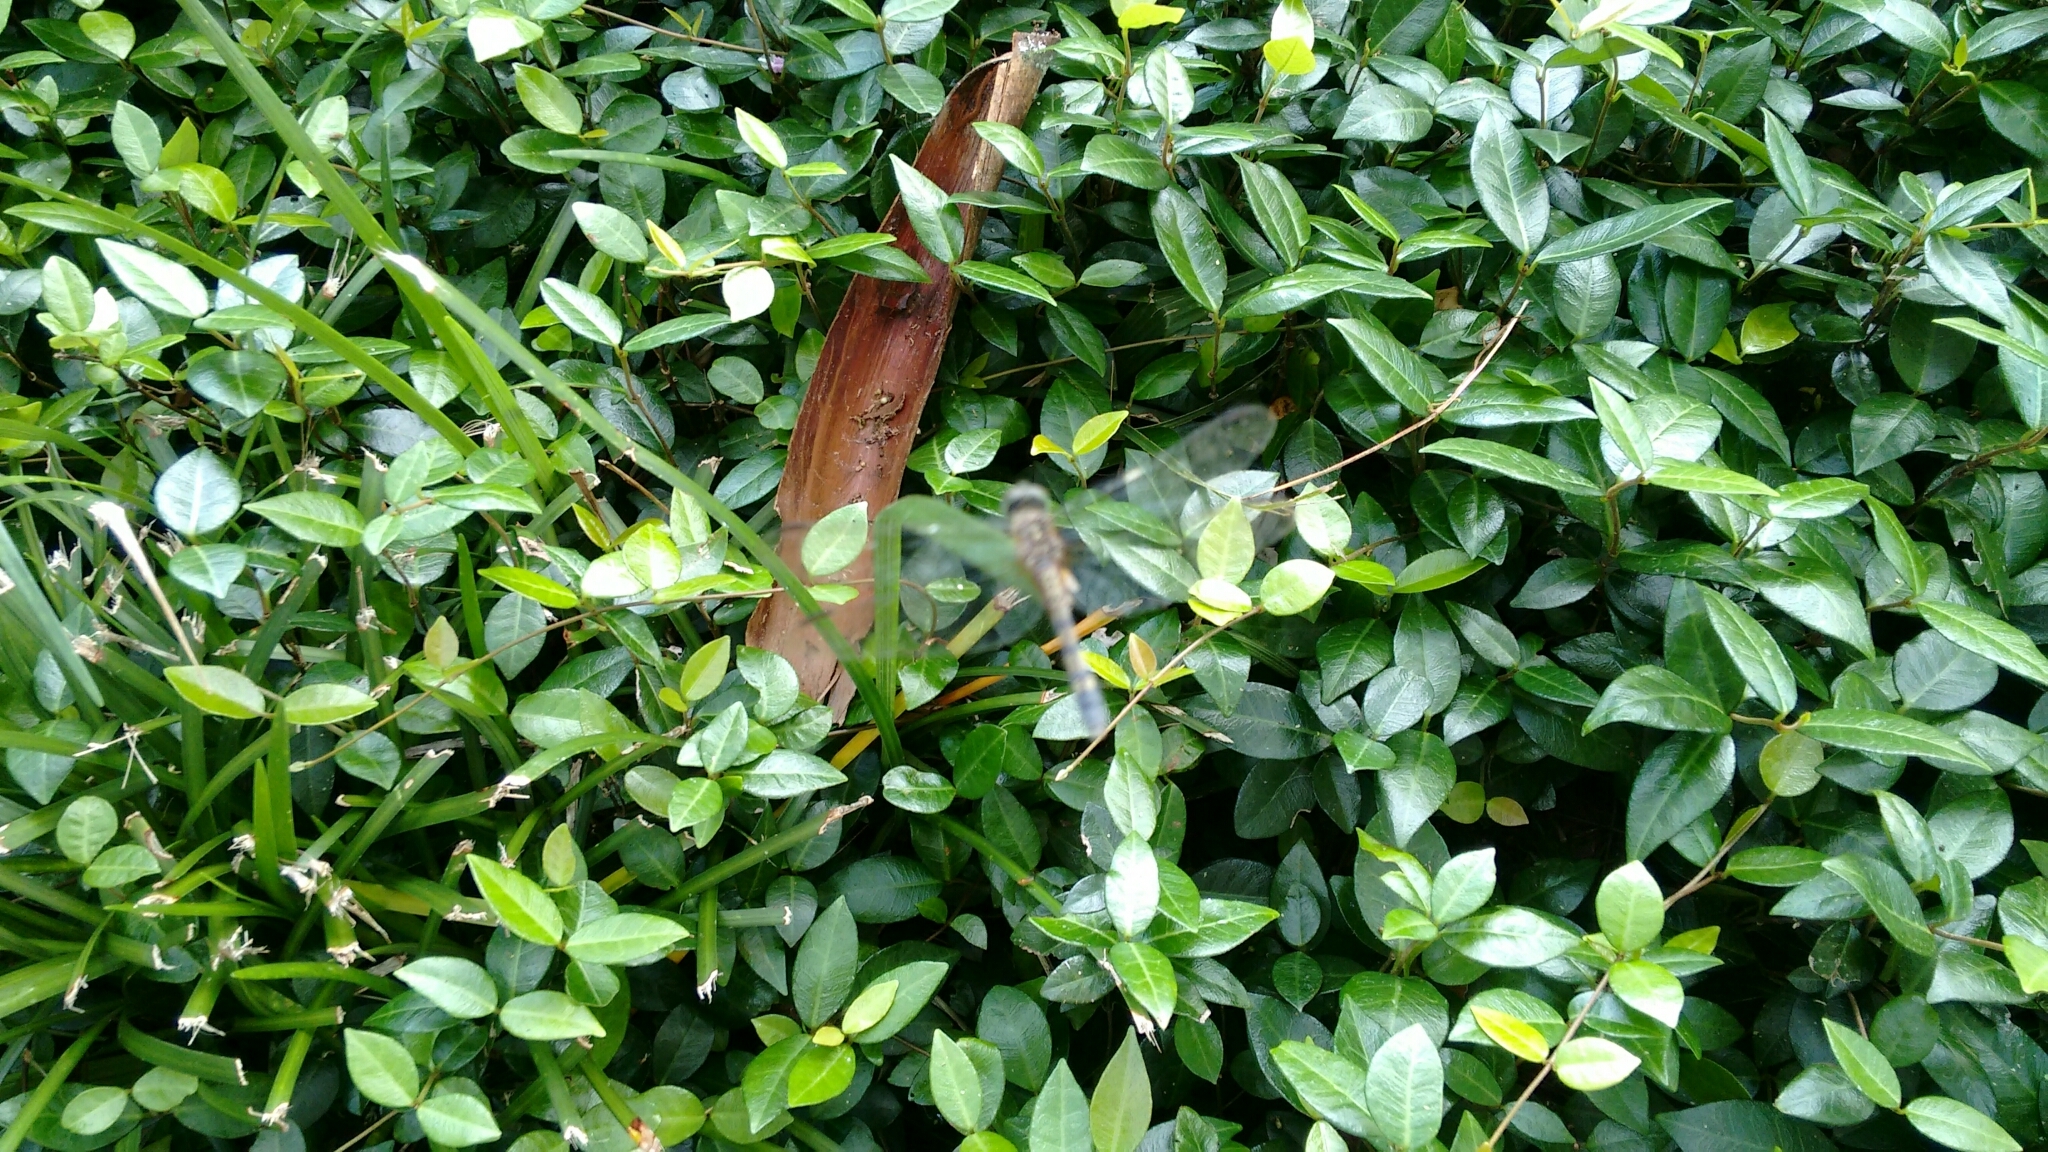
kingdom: Animalia
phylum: Arthropoda
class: Insecta
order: Odonata
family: Libellulidae
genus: Pachydiplax
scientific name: Pachydiplax longipennis
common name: Blue dasher
